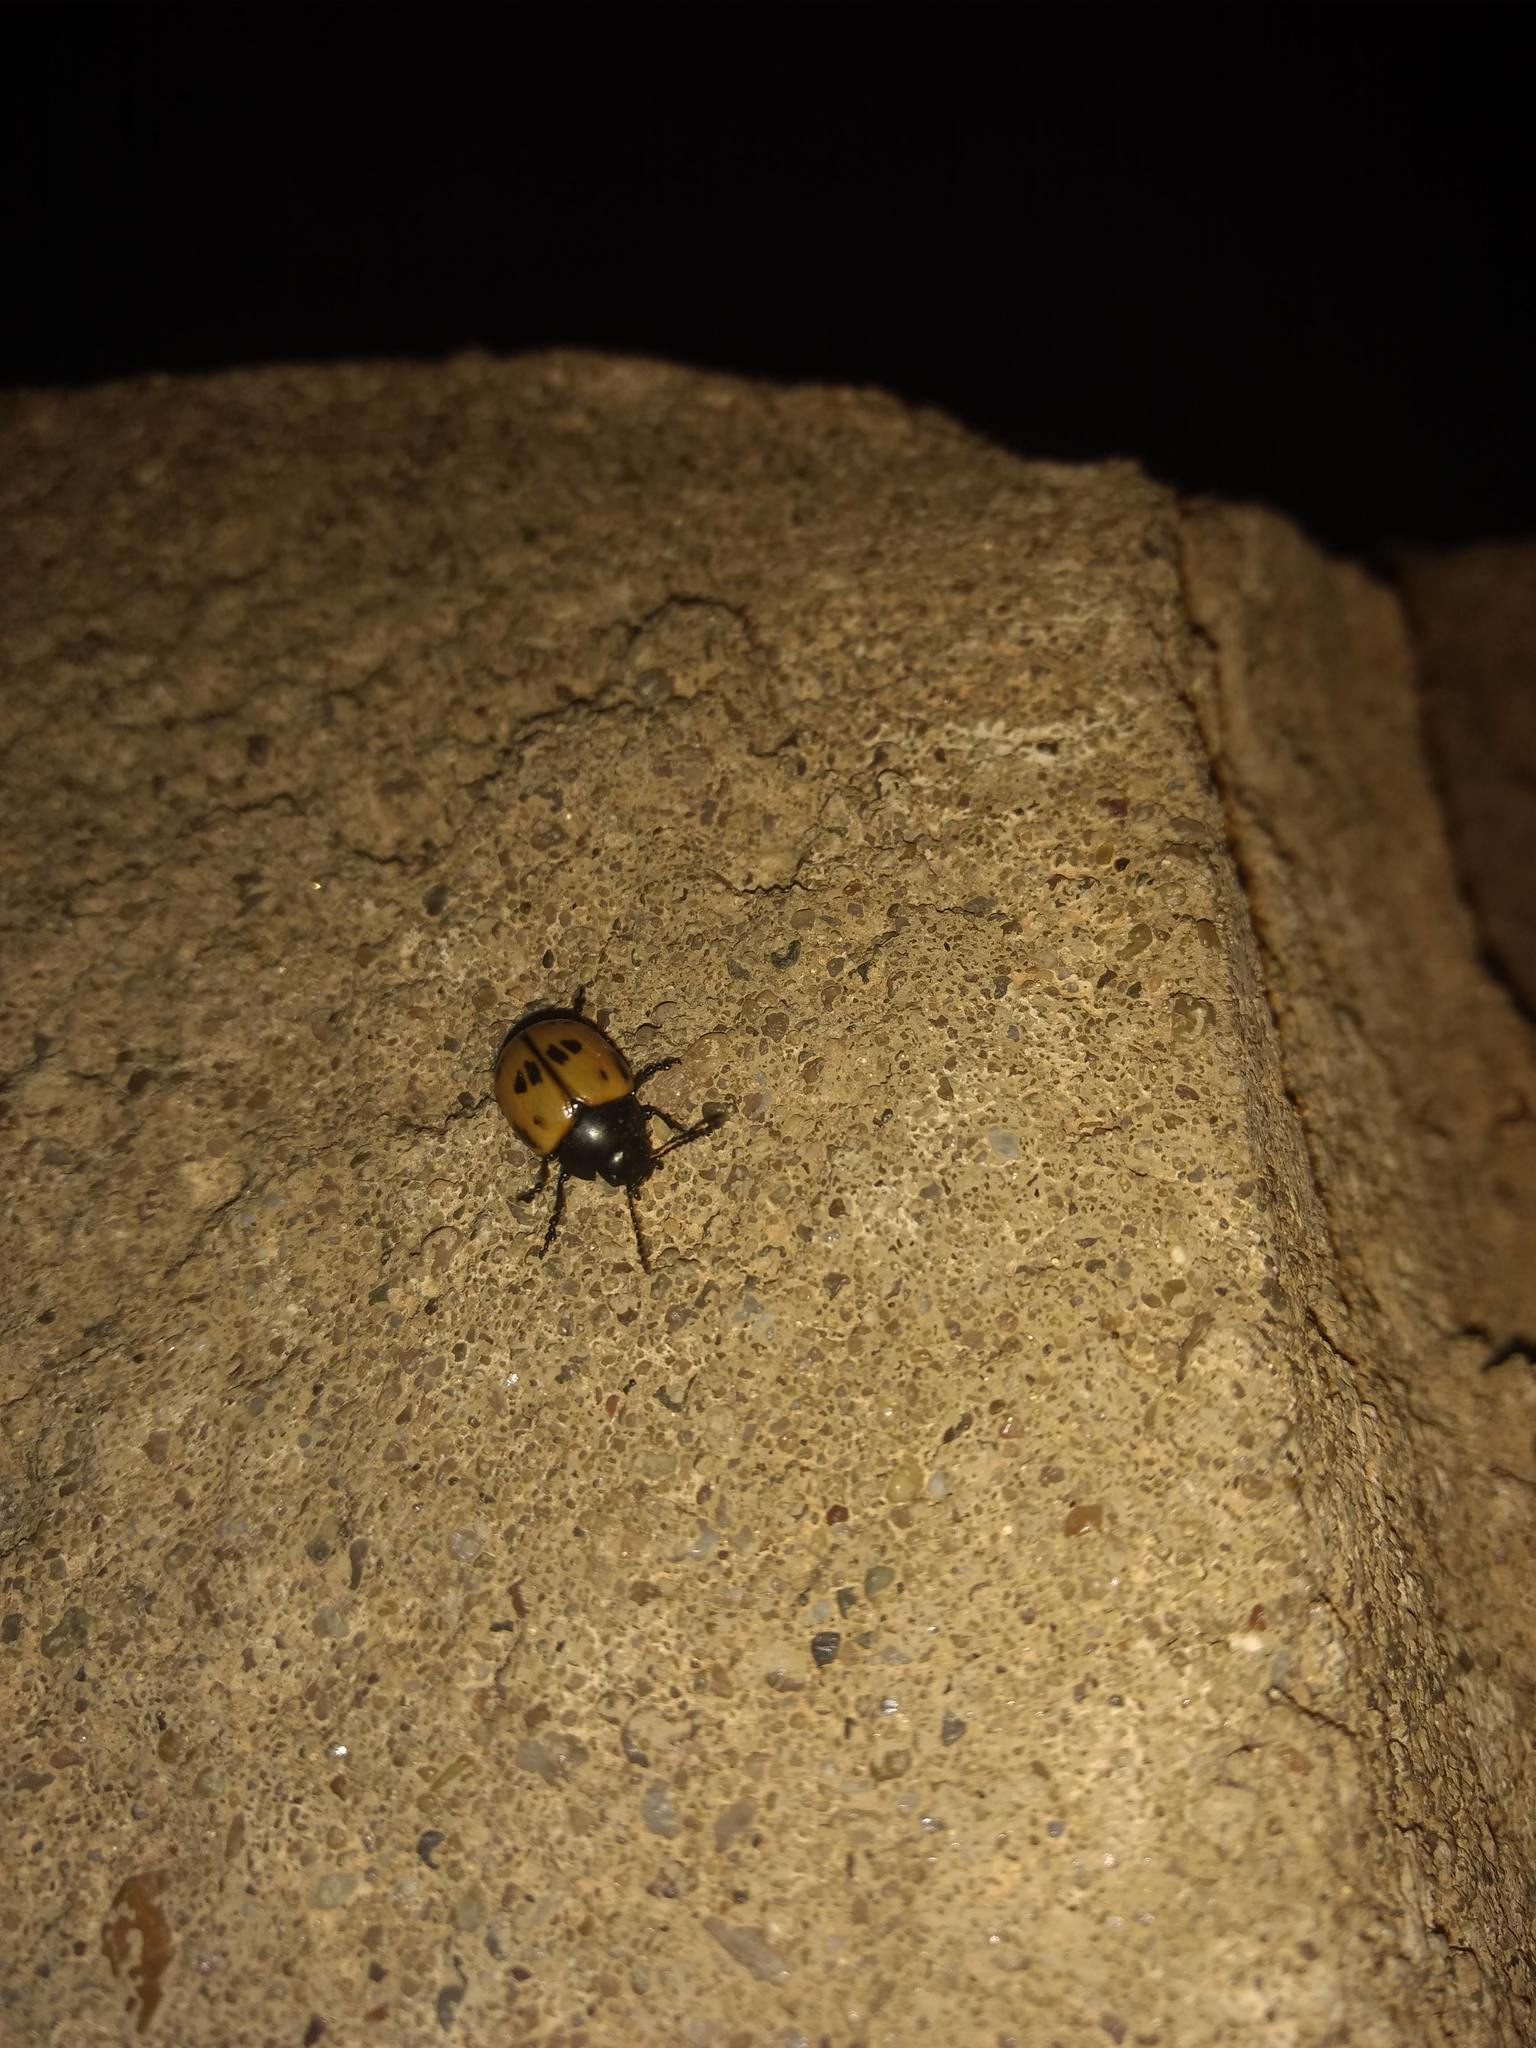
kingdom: Animalia
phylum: Arthropoda
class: Insecta
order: Coleoptera
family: Chrysomelidae
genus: Labidomera
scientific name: Labidomera clivicollis
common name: Swamp milkweed leaf beetle
